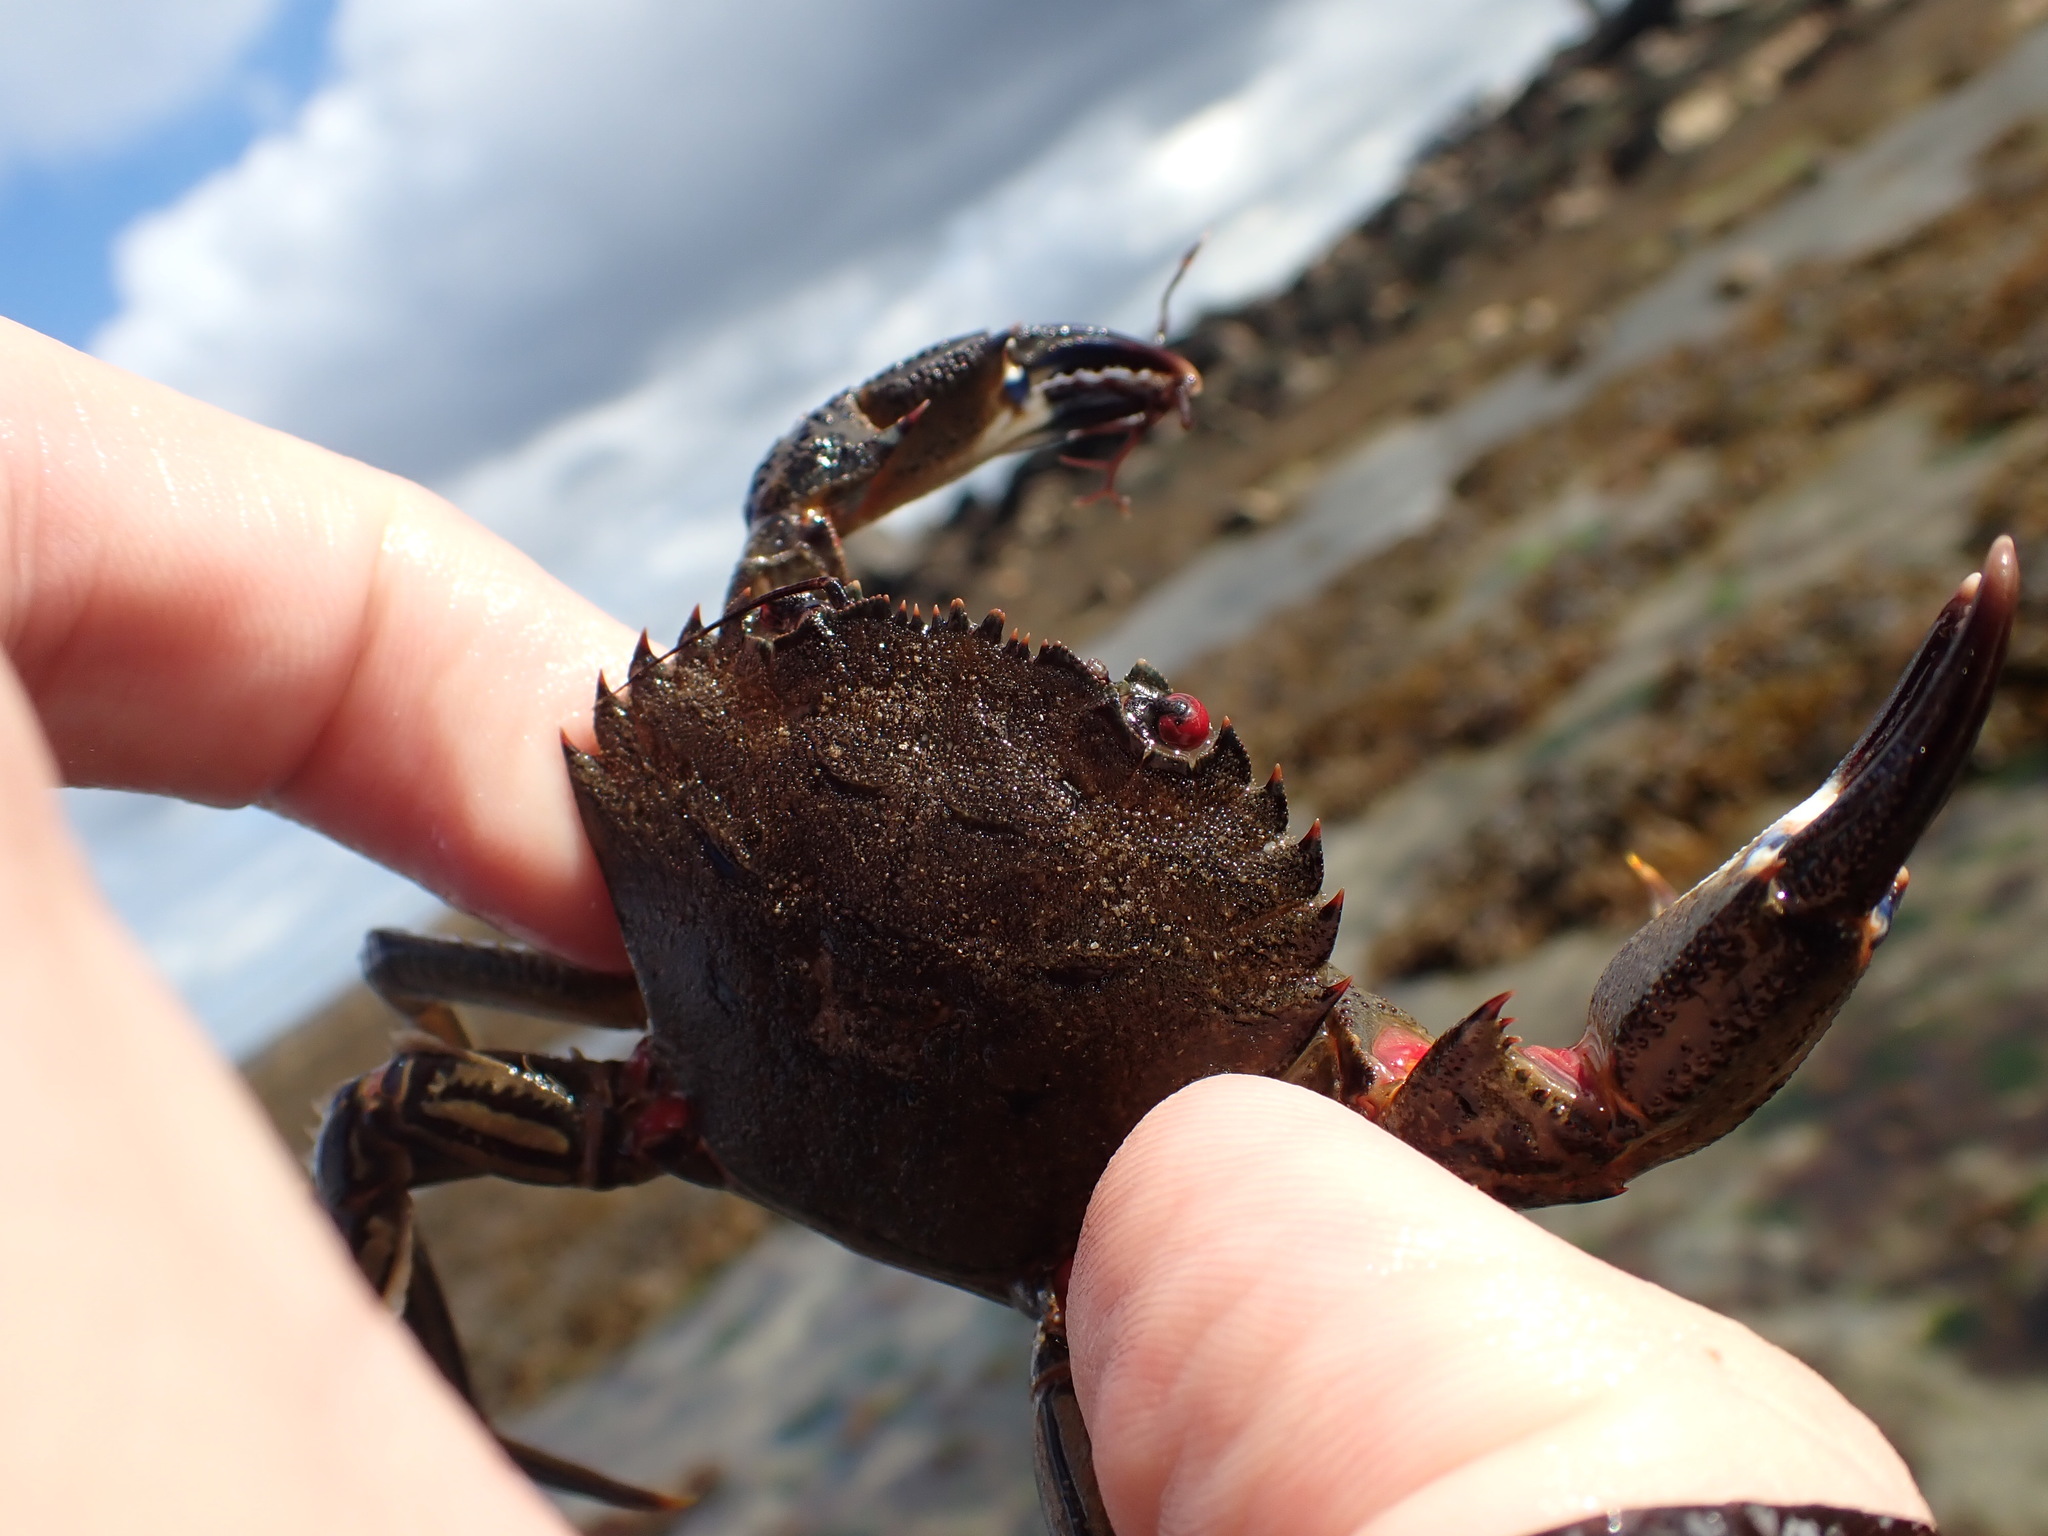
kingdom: Animalia
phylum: Arthropoda
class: Malacostraca
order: Decapoda
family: Polybiidae
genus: Necora
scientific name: Necora puber
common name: Velvet swimming crab
